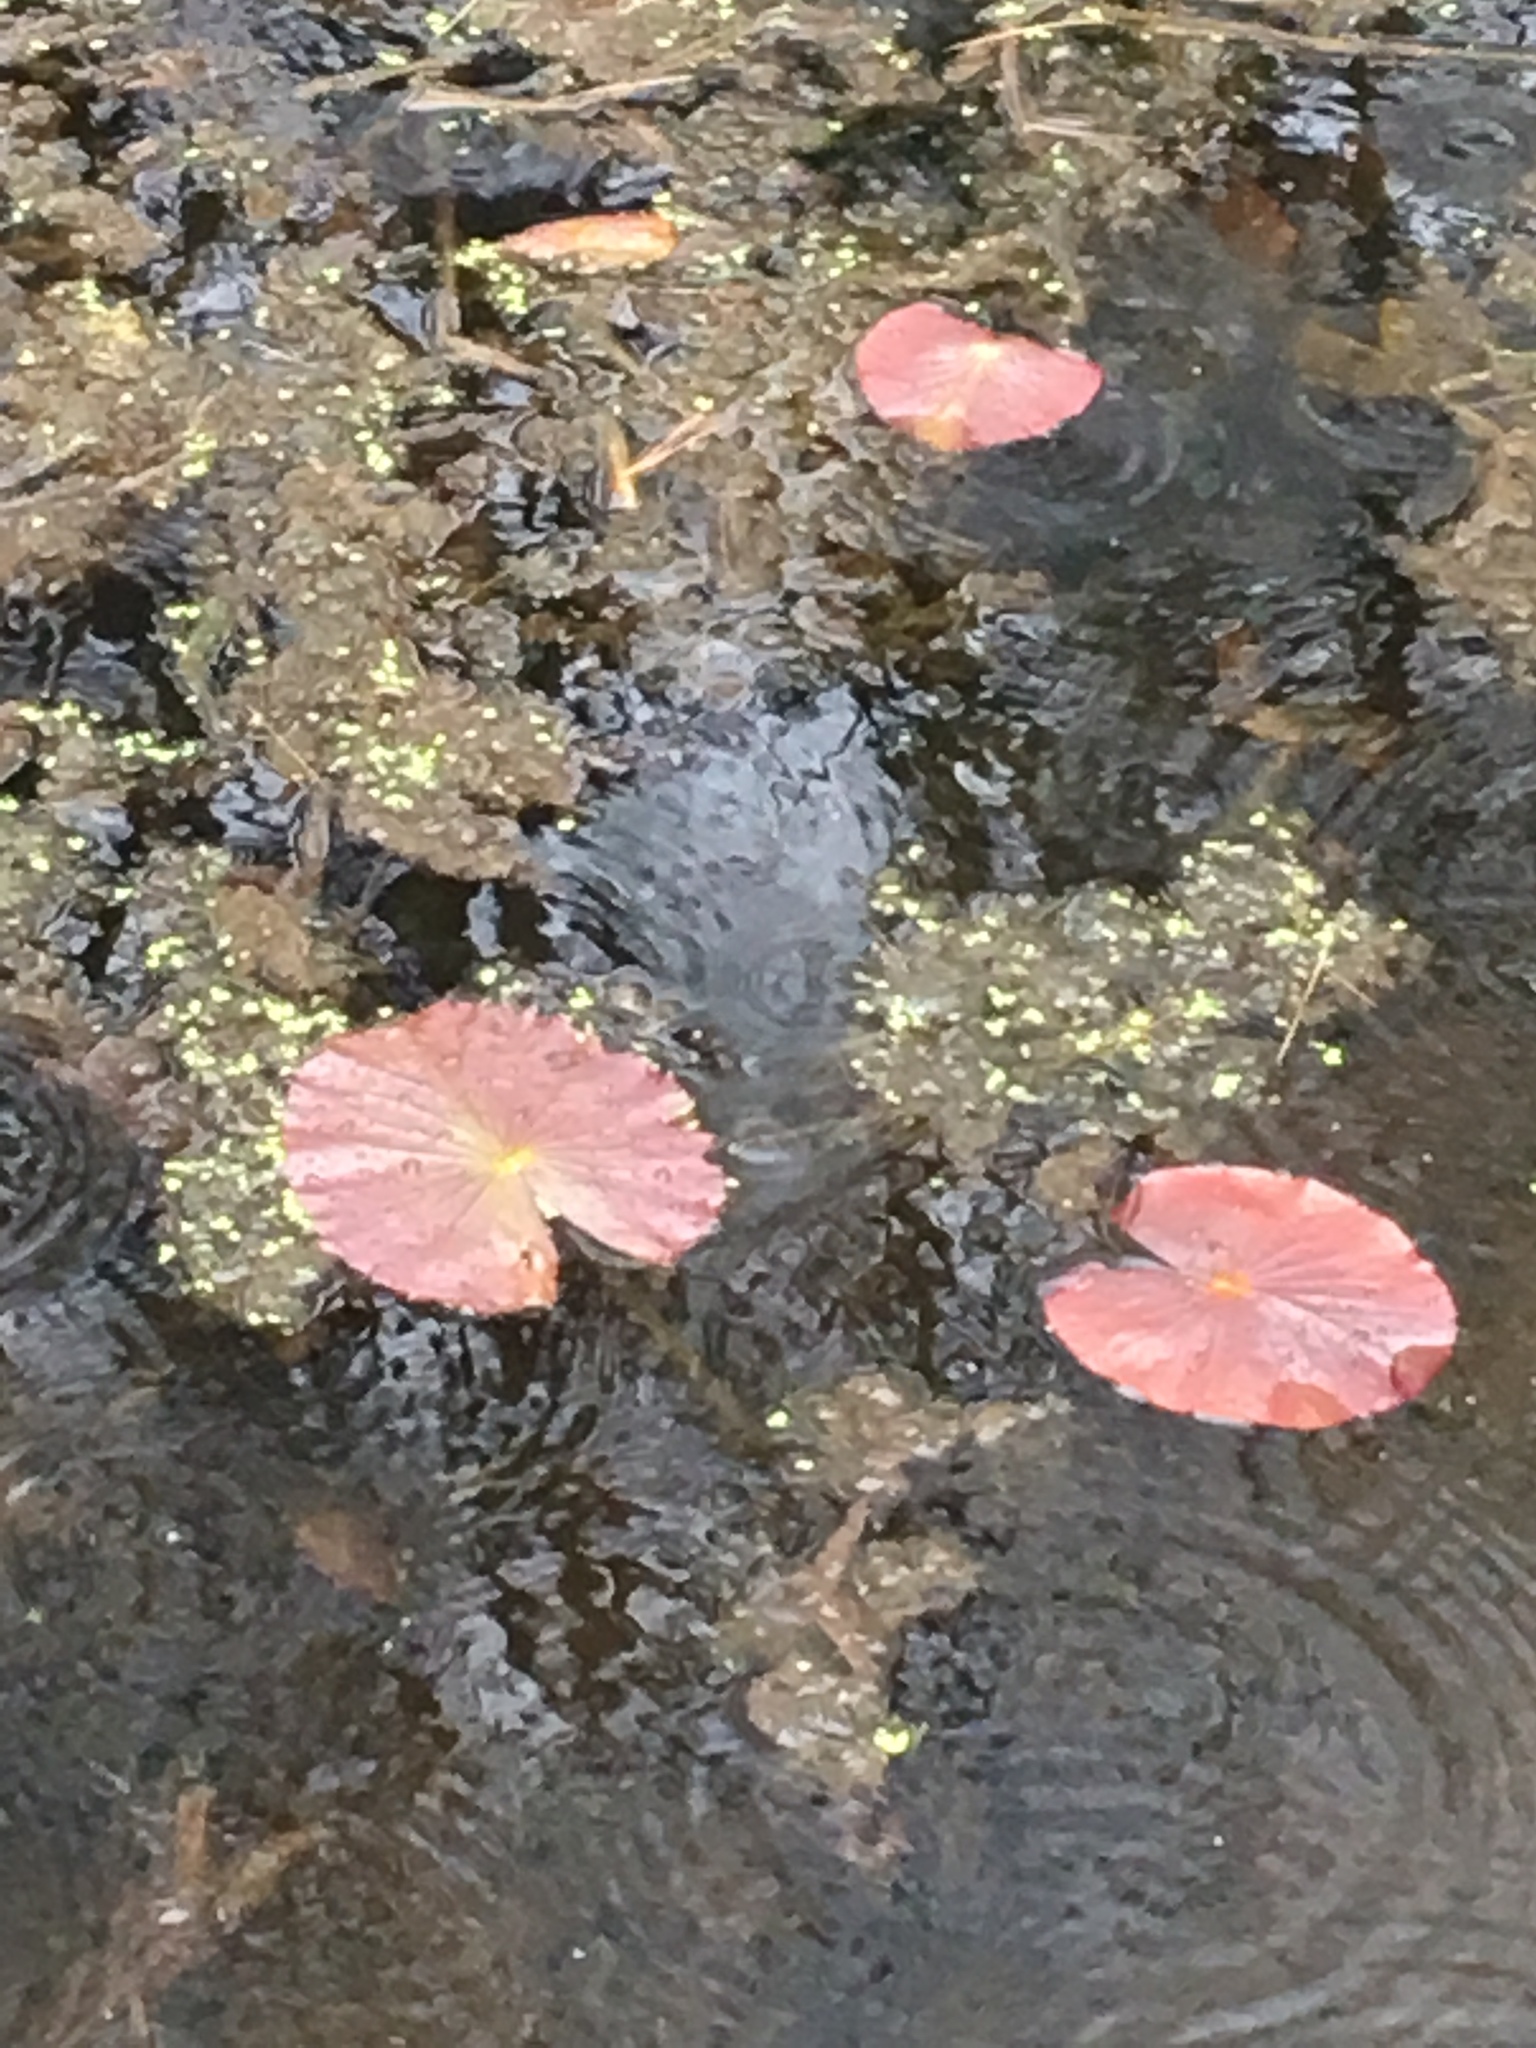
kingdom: Plantae
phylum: Tracheophyta
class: Magnoliopsida
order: Nymphaeales
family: Nymphaeaceae
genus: Nymphaea
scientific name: Nymphaea odorata
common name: Fragrant water-lily
